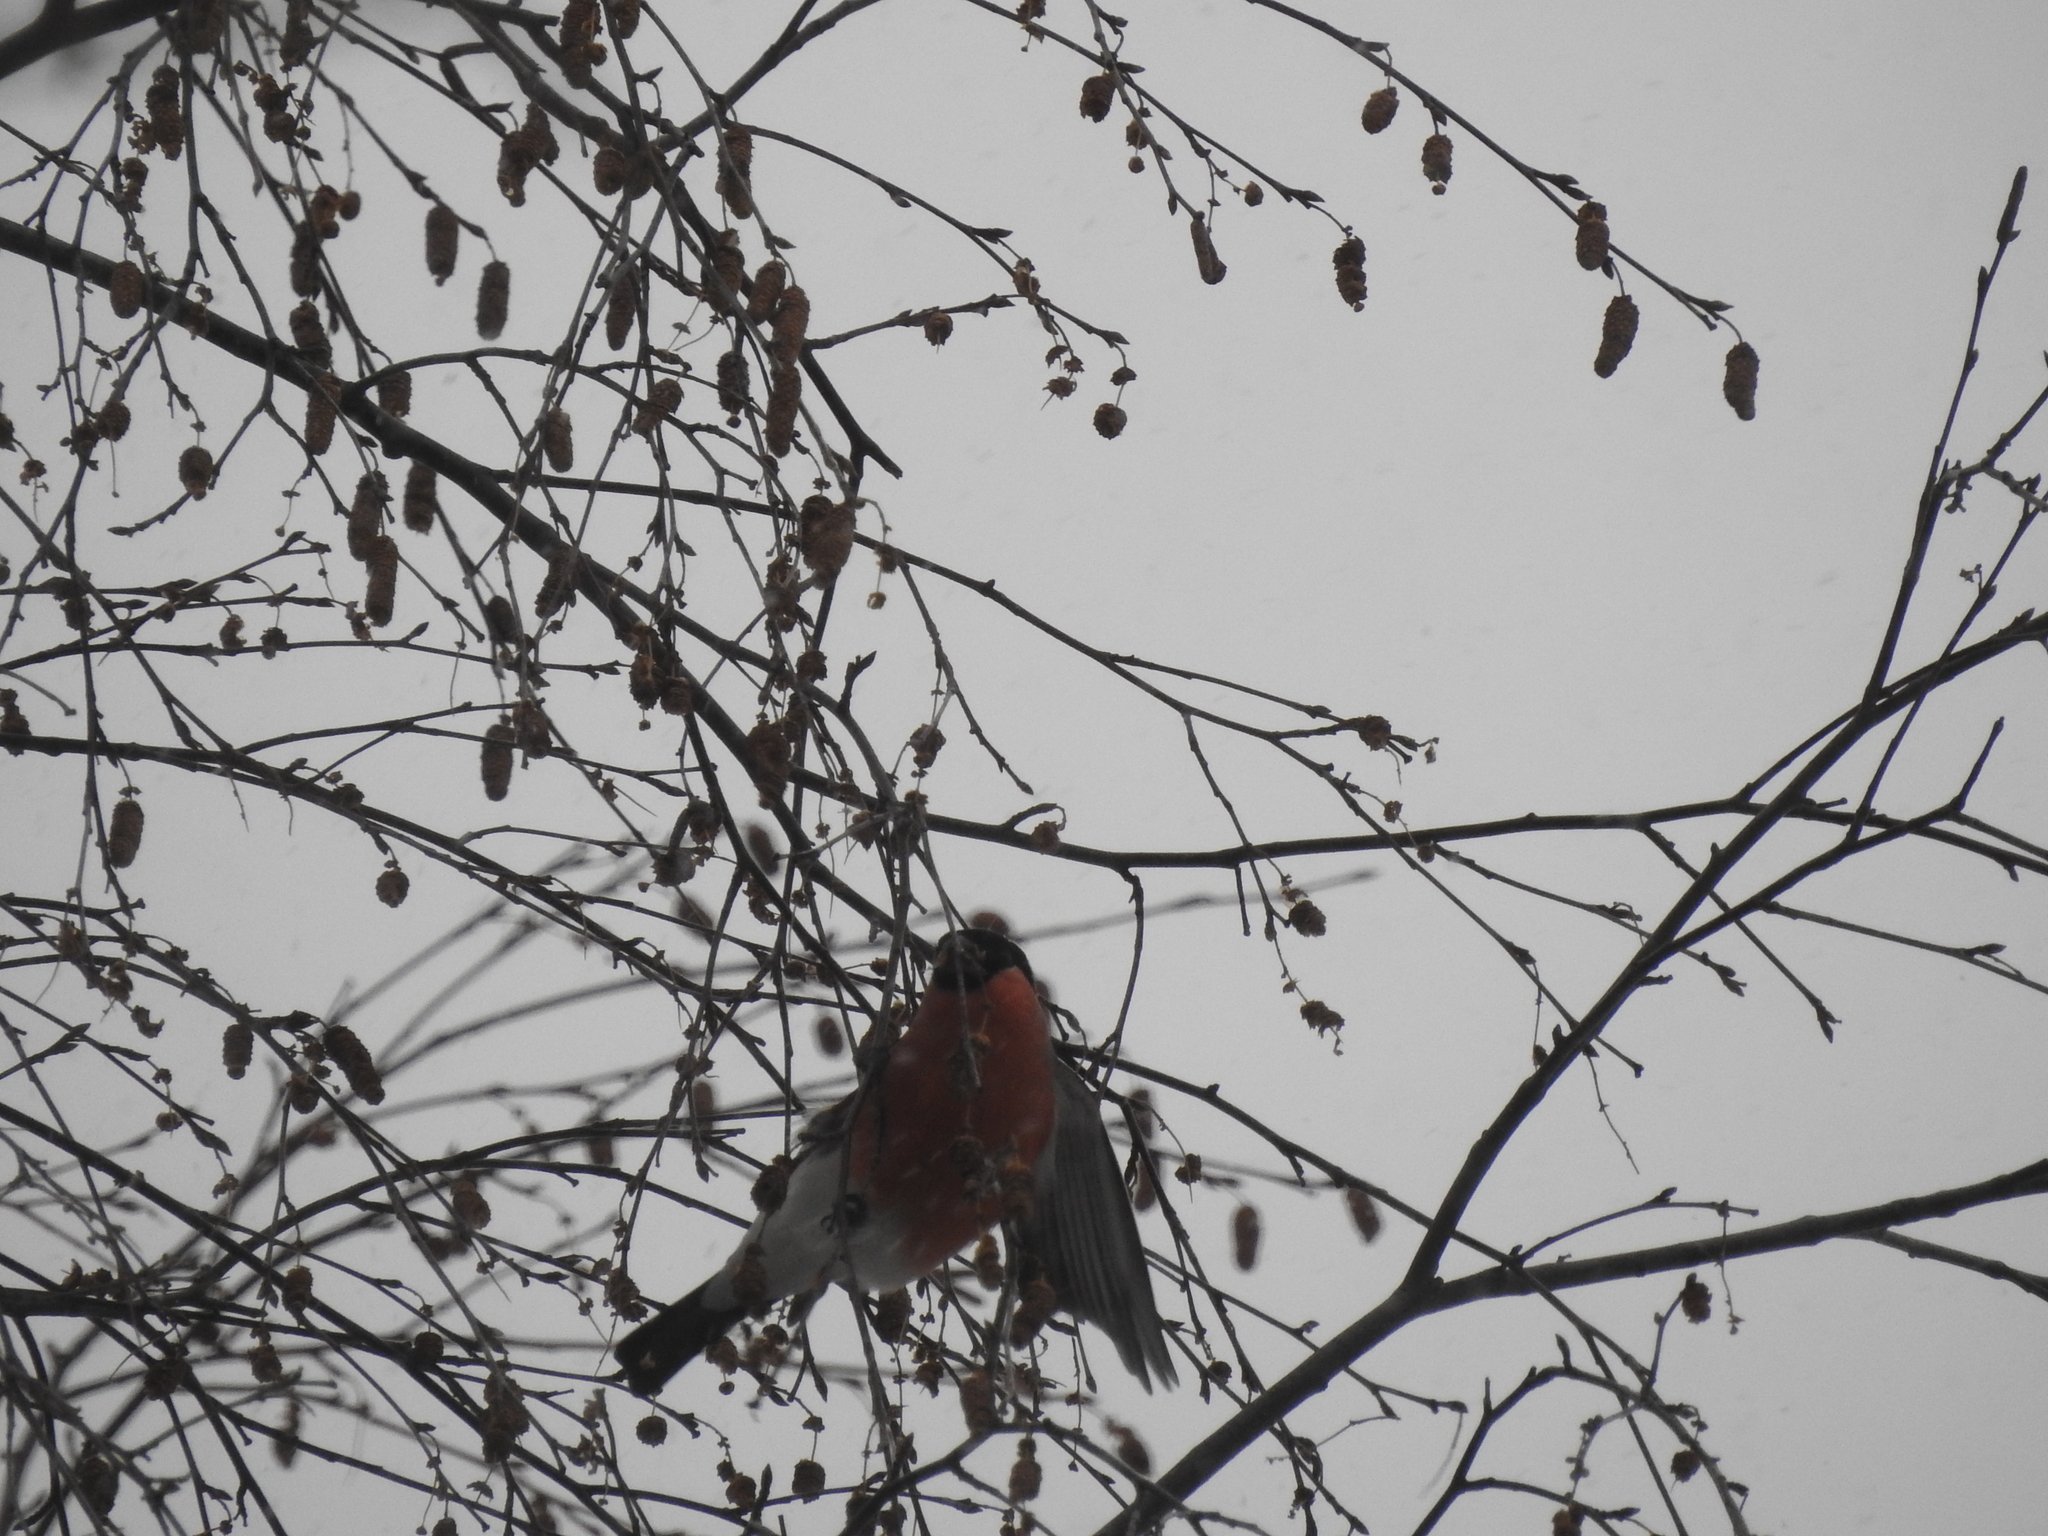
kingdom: Animalia
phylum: Chordata
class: Aves
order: Passeriformes
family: Fringillidae
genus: Pyrrhula
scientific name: Pyrrhula pyrrhula
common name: Eurasian bullfinch
